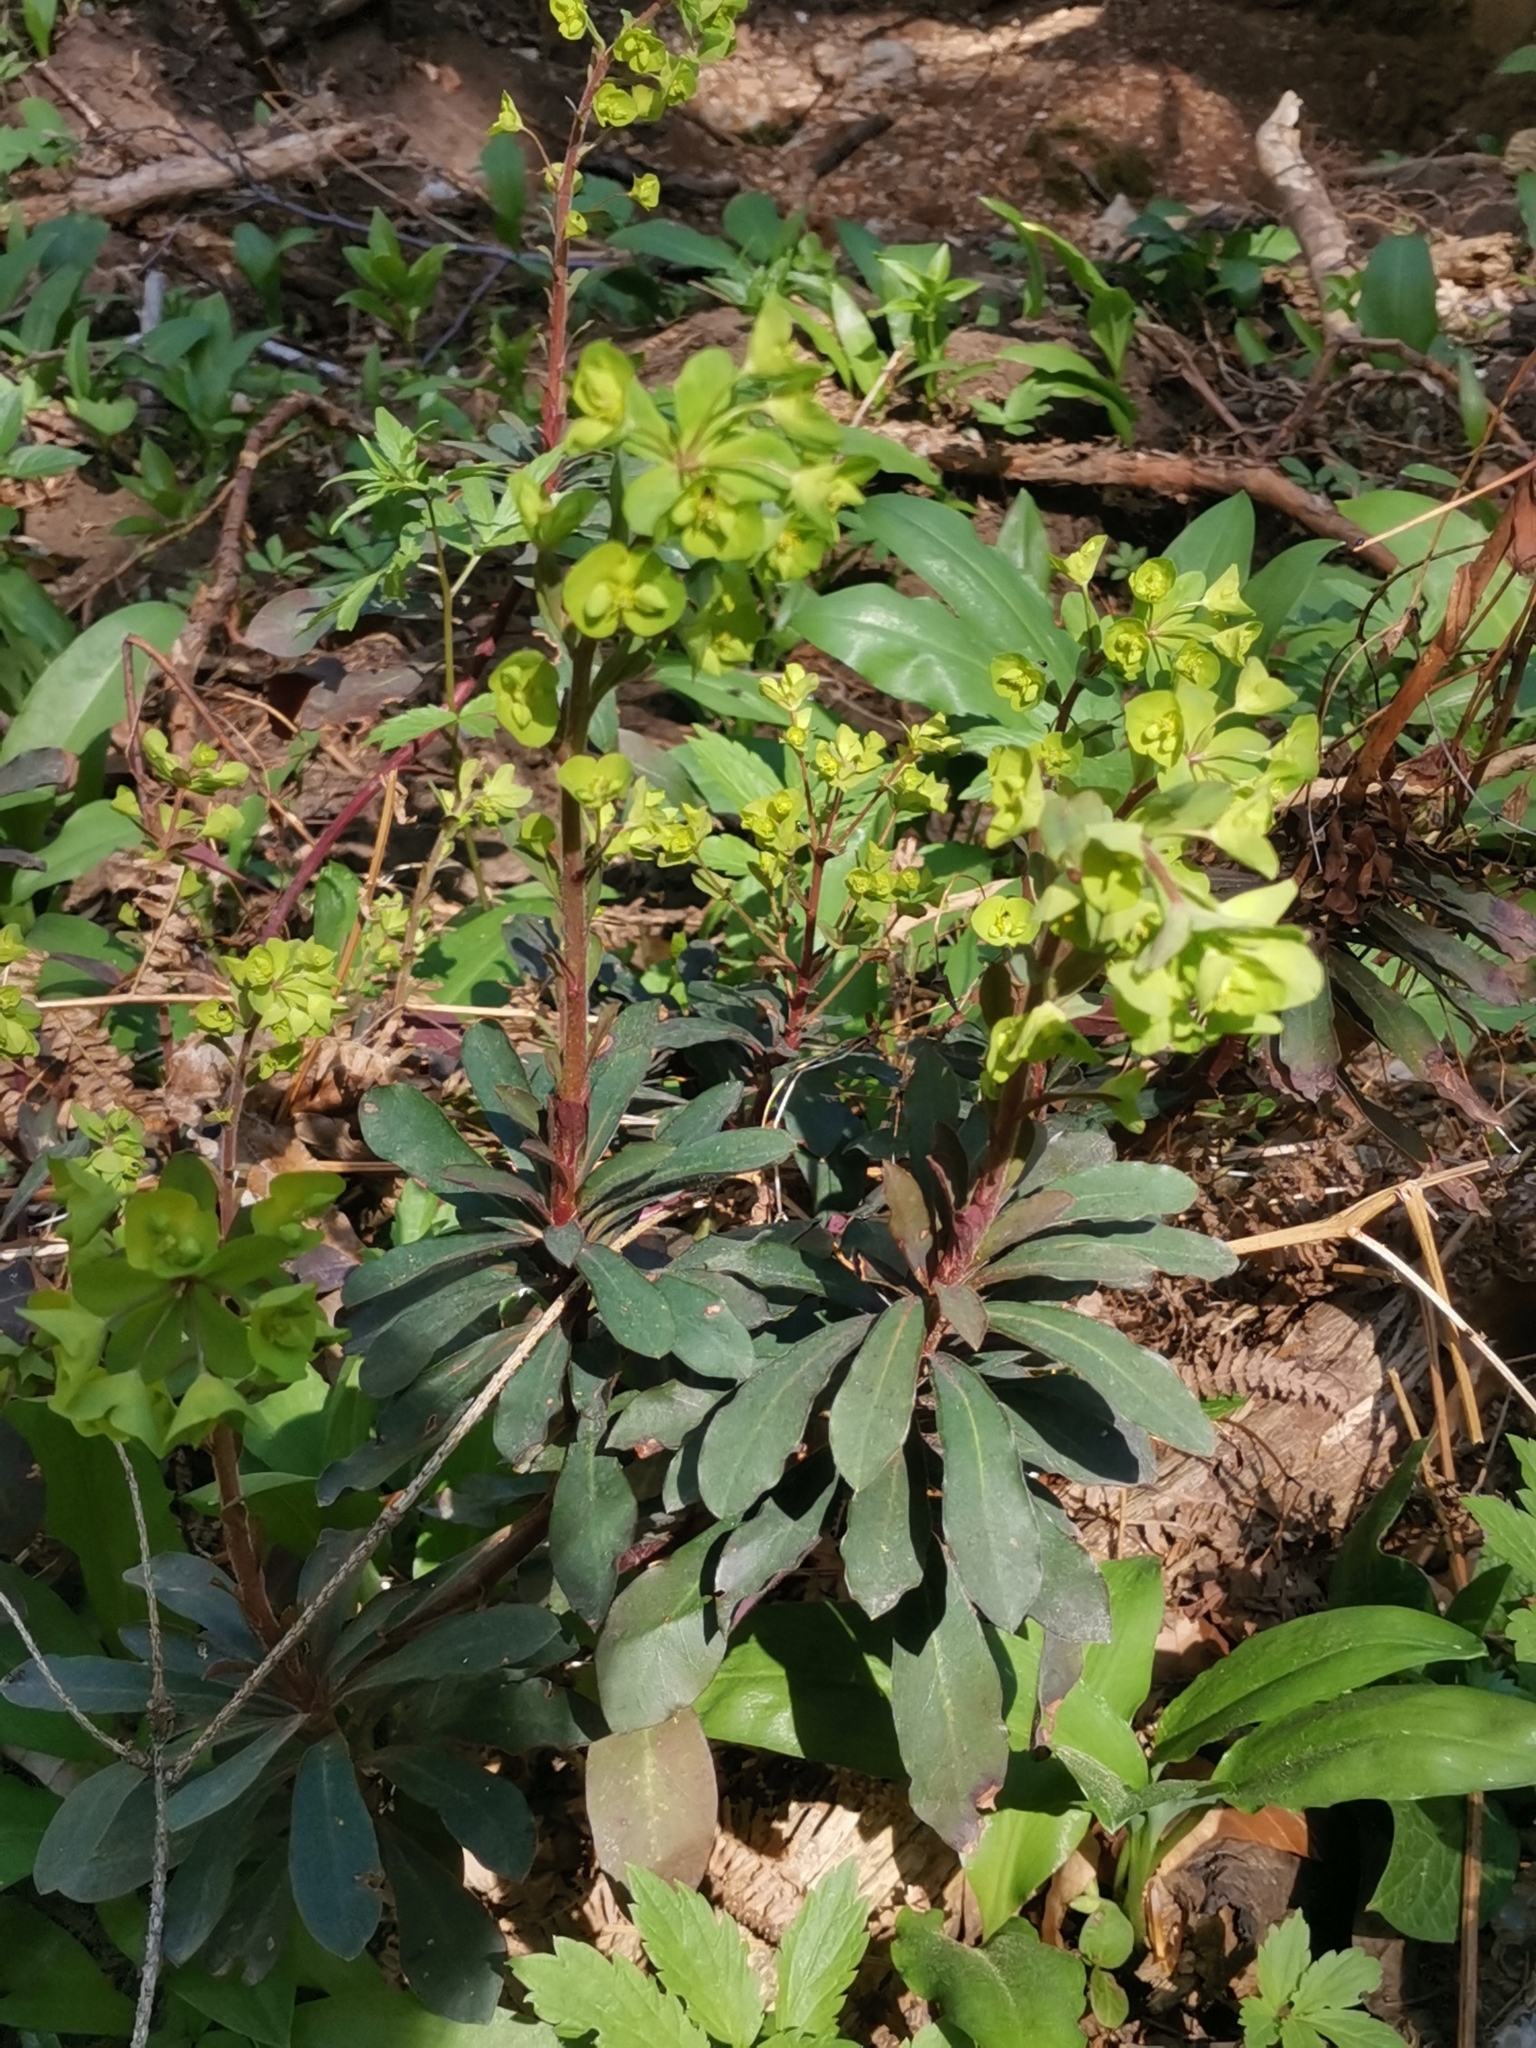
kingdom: Plantae
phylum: Tracheophyta
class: Magnoliopsida
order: Malpighiales
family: Euphorbiaceae
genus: Euphorbia
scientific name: Euphorbia amygdaloides
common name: Wood spurge
